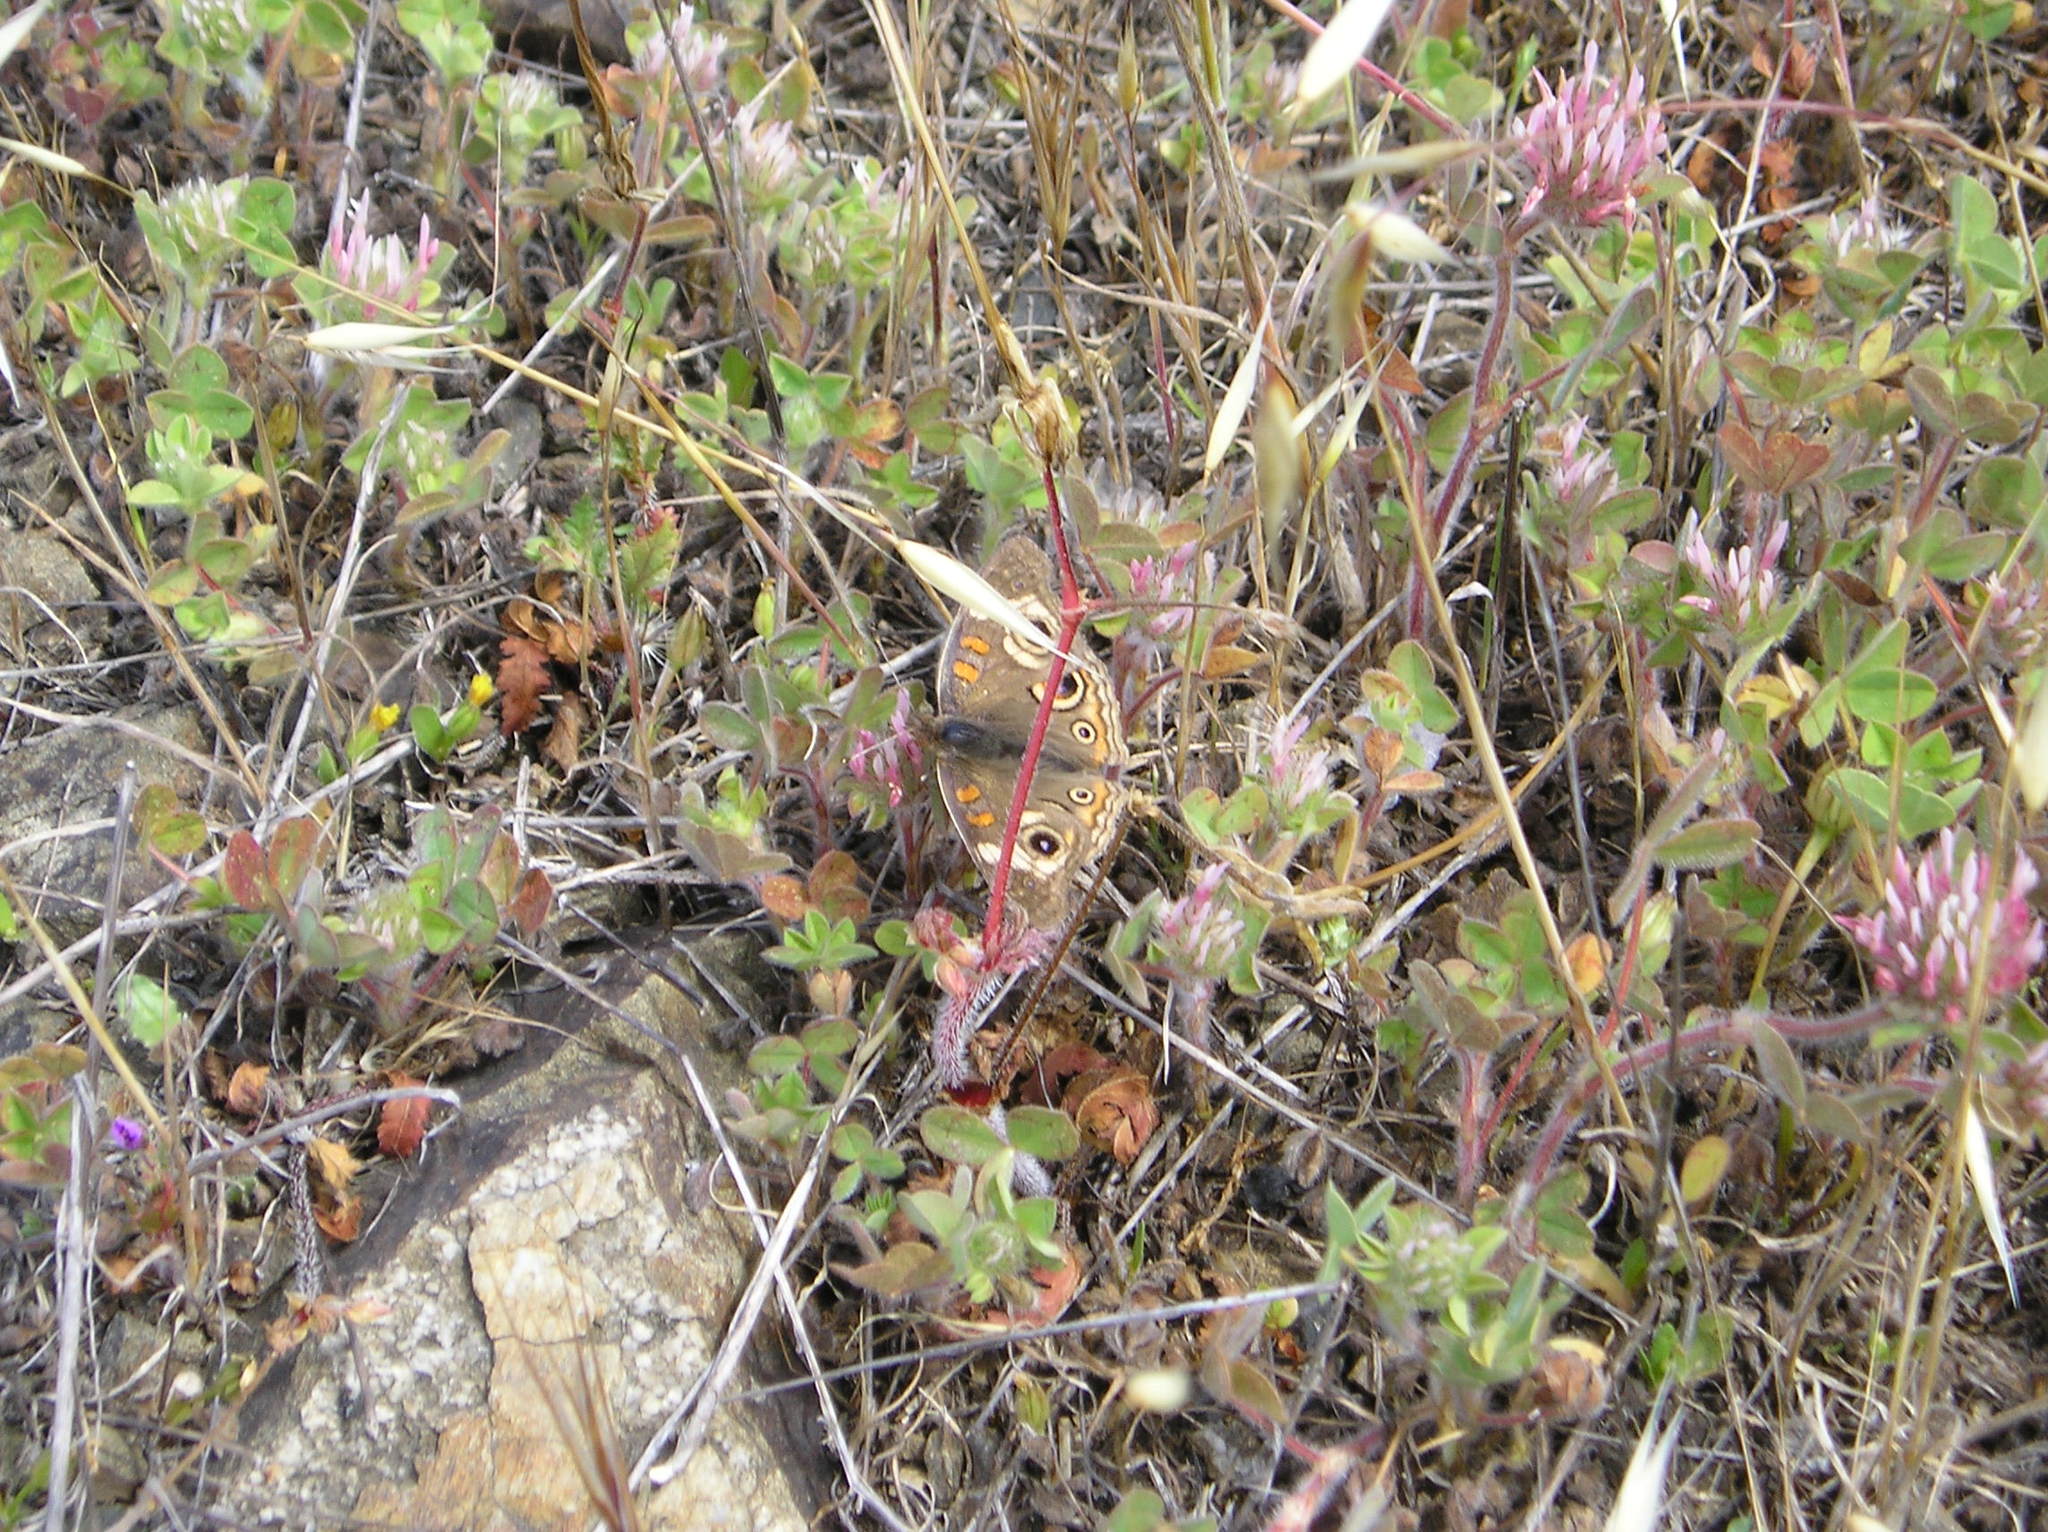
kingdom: Animalia
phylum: Arthropoda
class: Insecta
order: Lepidoptera
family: Nymphalidae
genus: Junonia
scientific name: Junonia grisea
